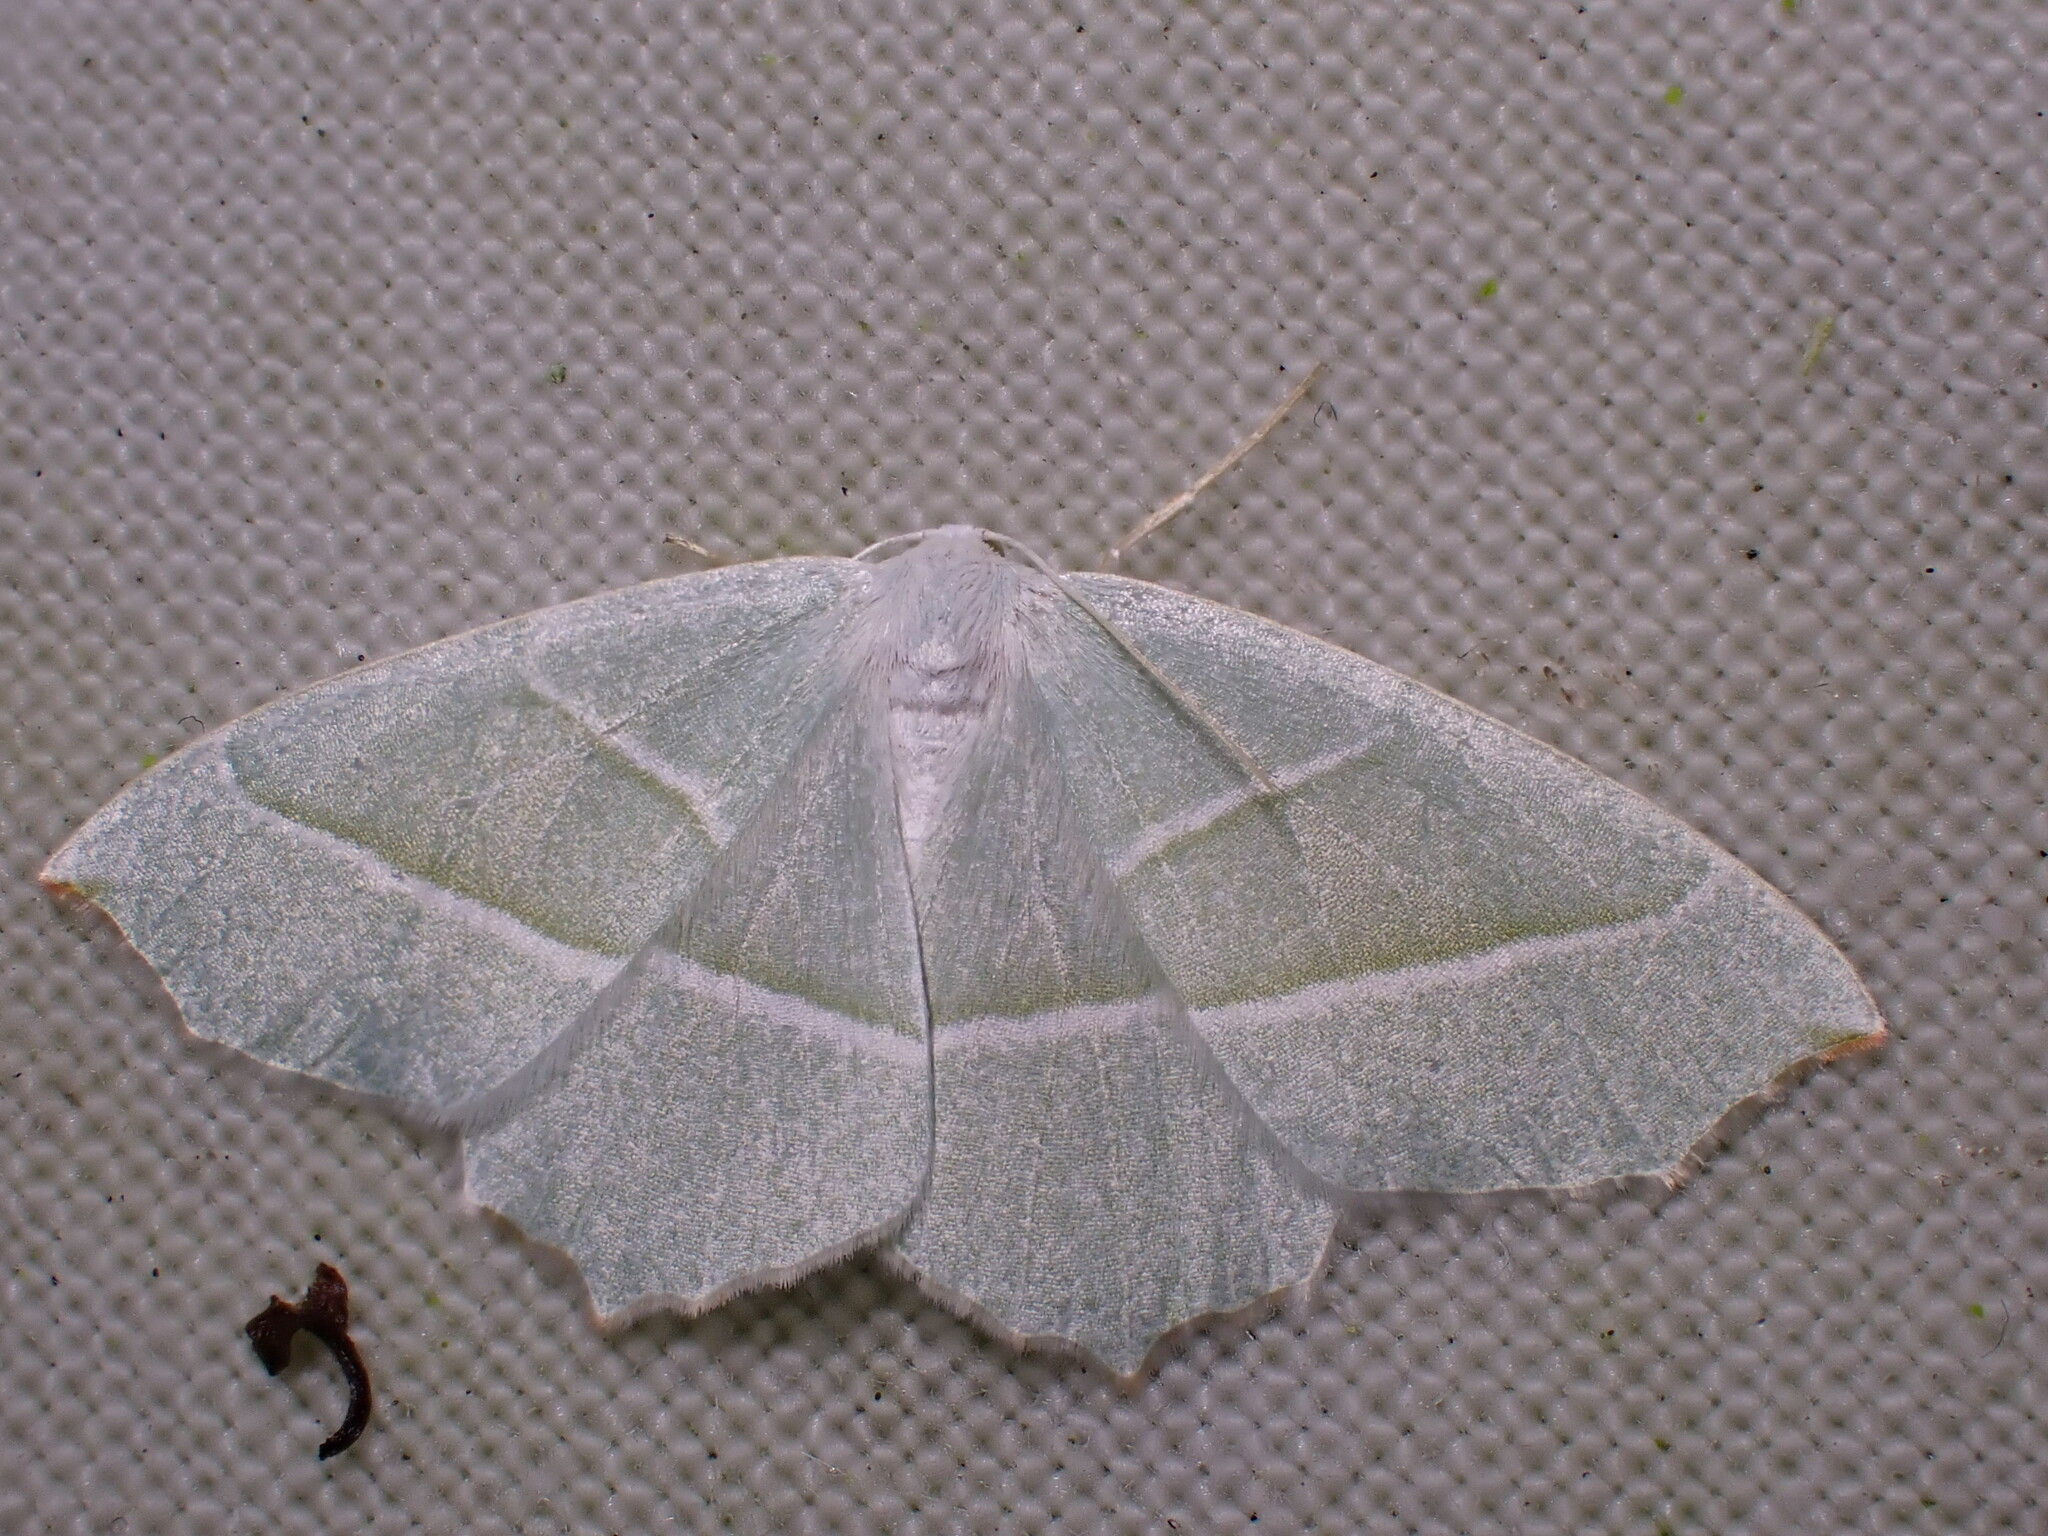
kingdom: Animalia
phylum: Arthropoda
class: Insecta
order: Lepidoptera
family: Geometridae
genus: Campaea
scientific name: Campaea margaritaria
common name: Light emerald
